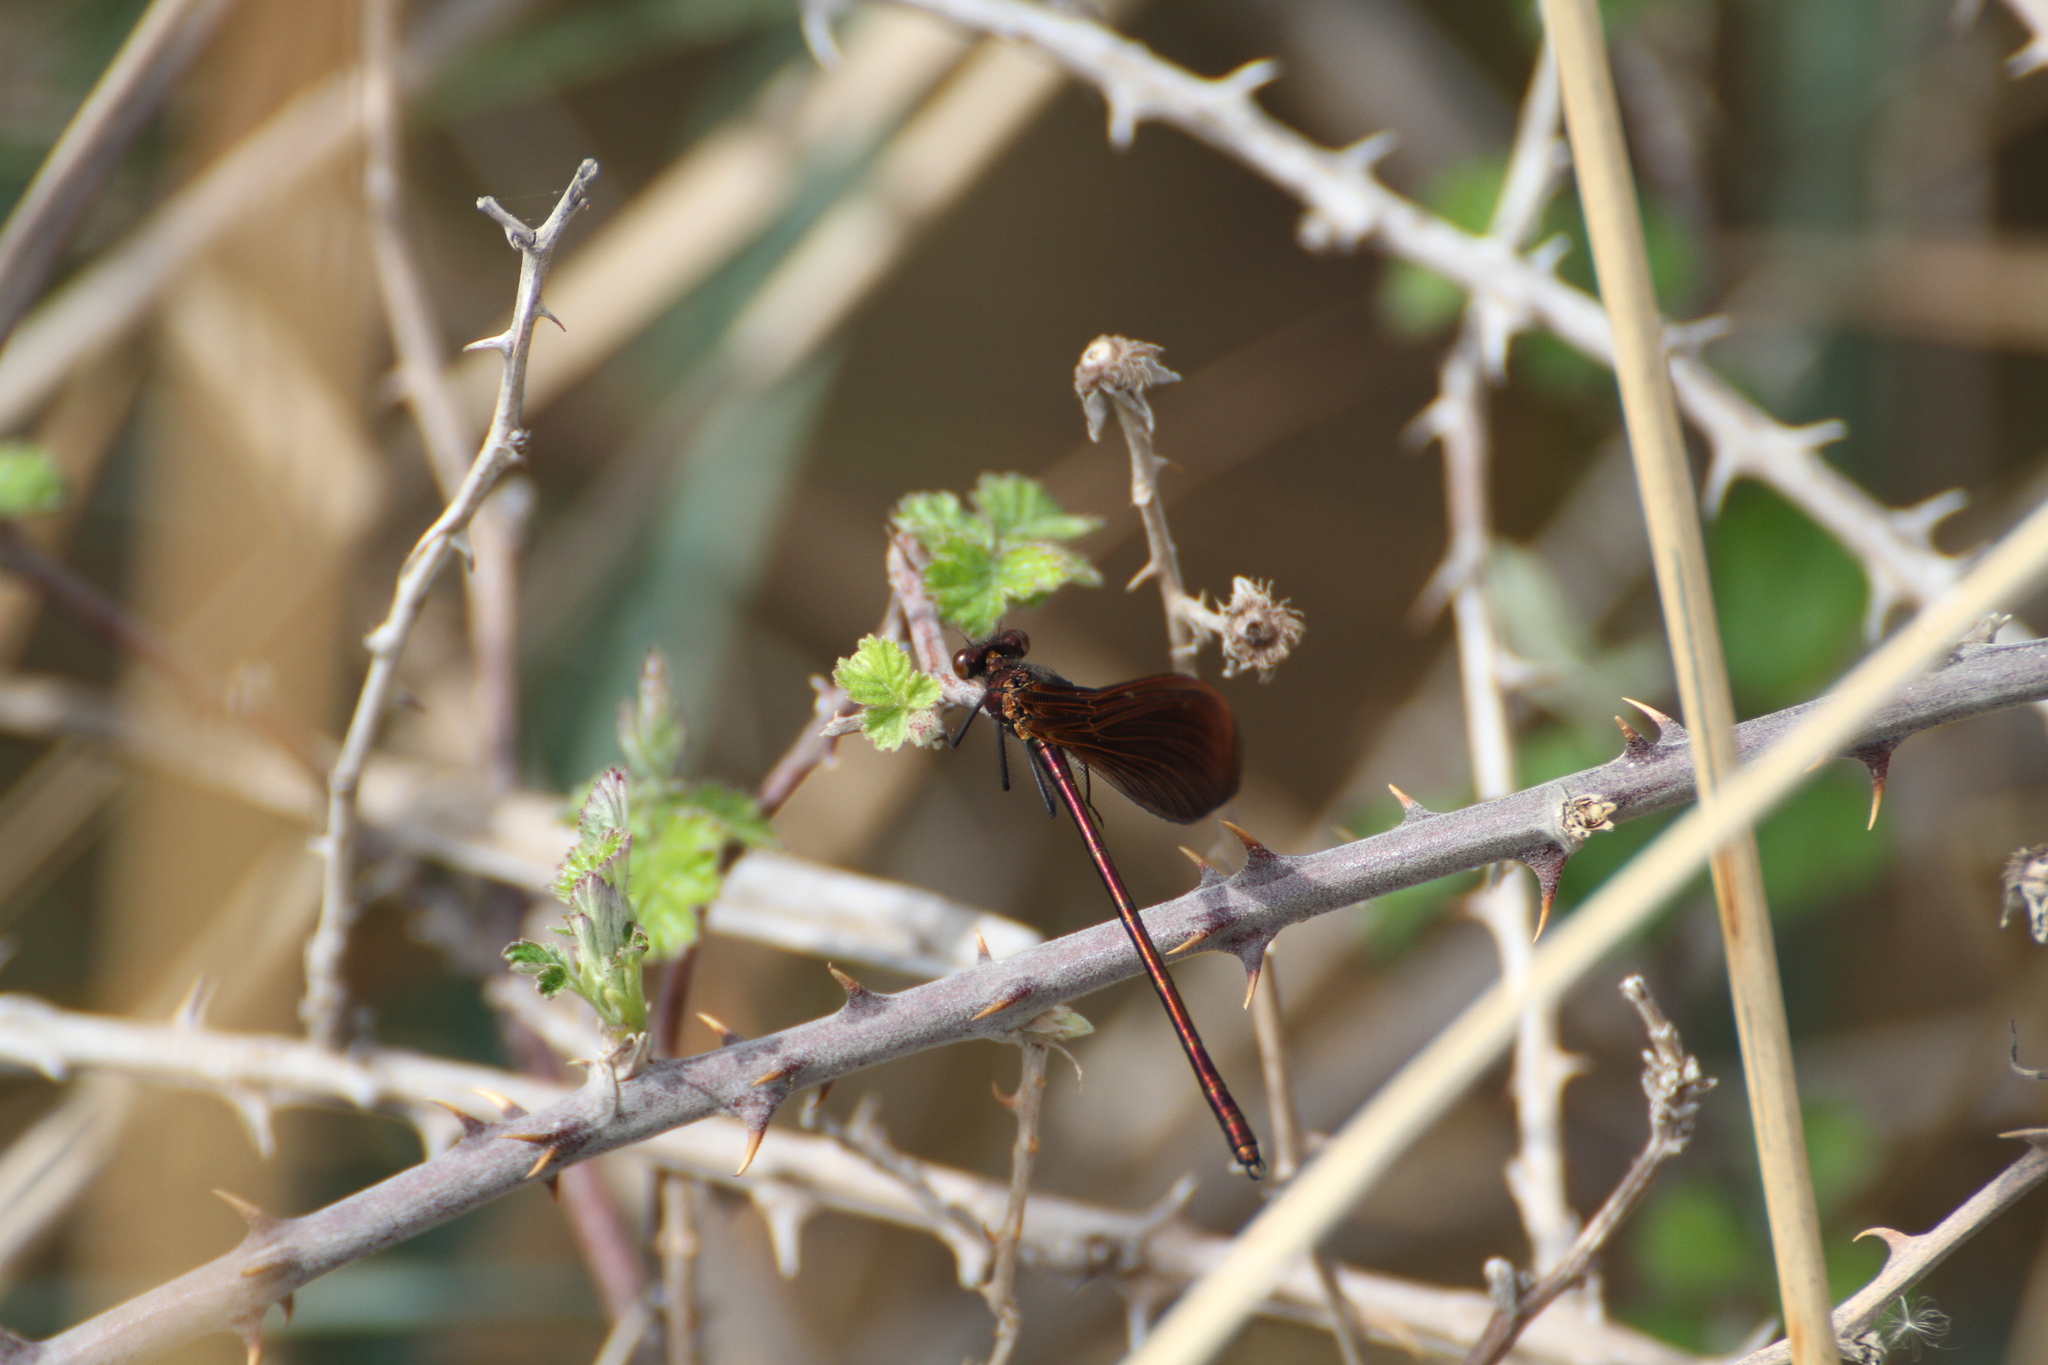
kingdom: Animalia
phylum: Arthropoda
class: Insecta
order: Odonata
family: Calopterygidae
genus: Calopteryx
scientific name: Calopteryx haemorrhoidalis
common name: Copper demoiselle
